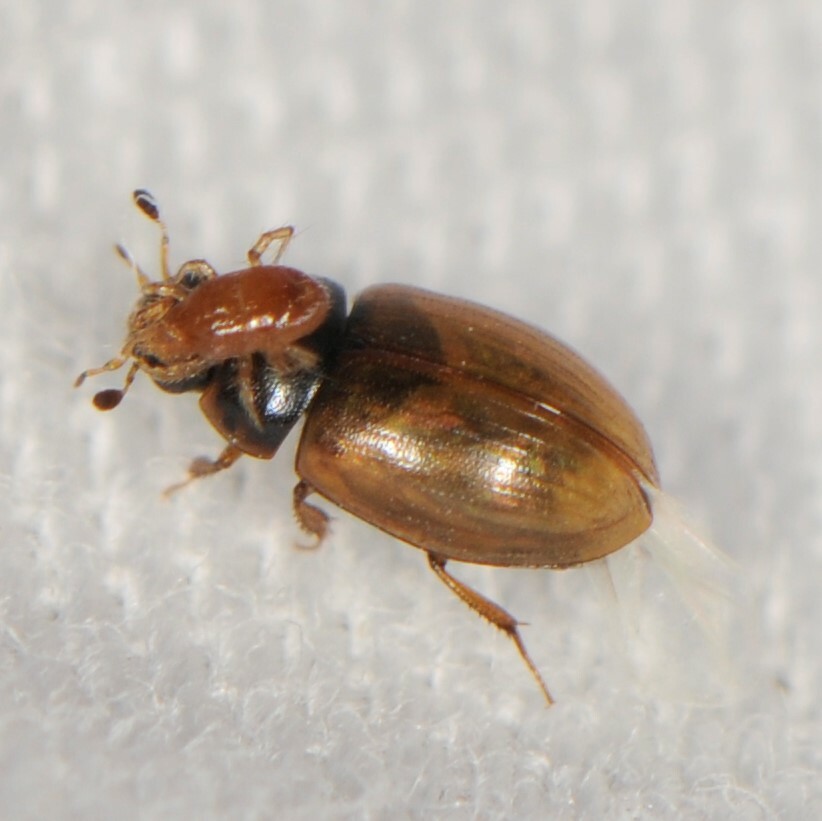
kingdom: Animalia
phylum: Arthropoda
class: Insecta
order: Coleoptera
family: Hydrophilidae
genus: Cercyon
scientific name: Cercyon
